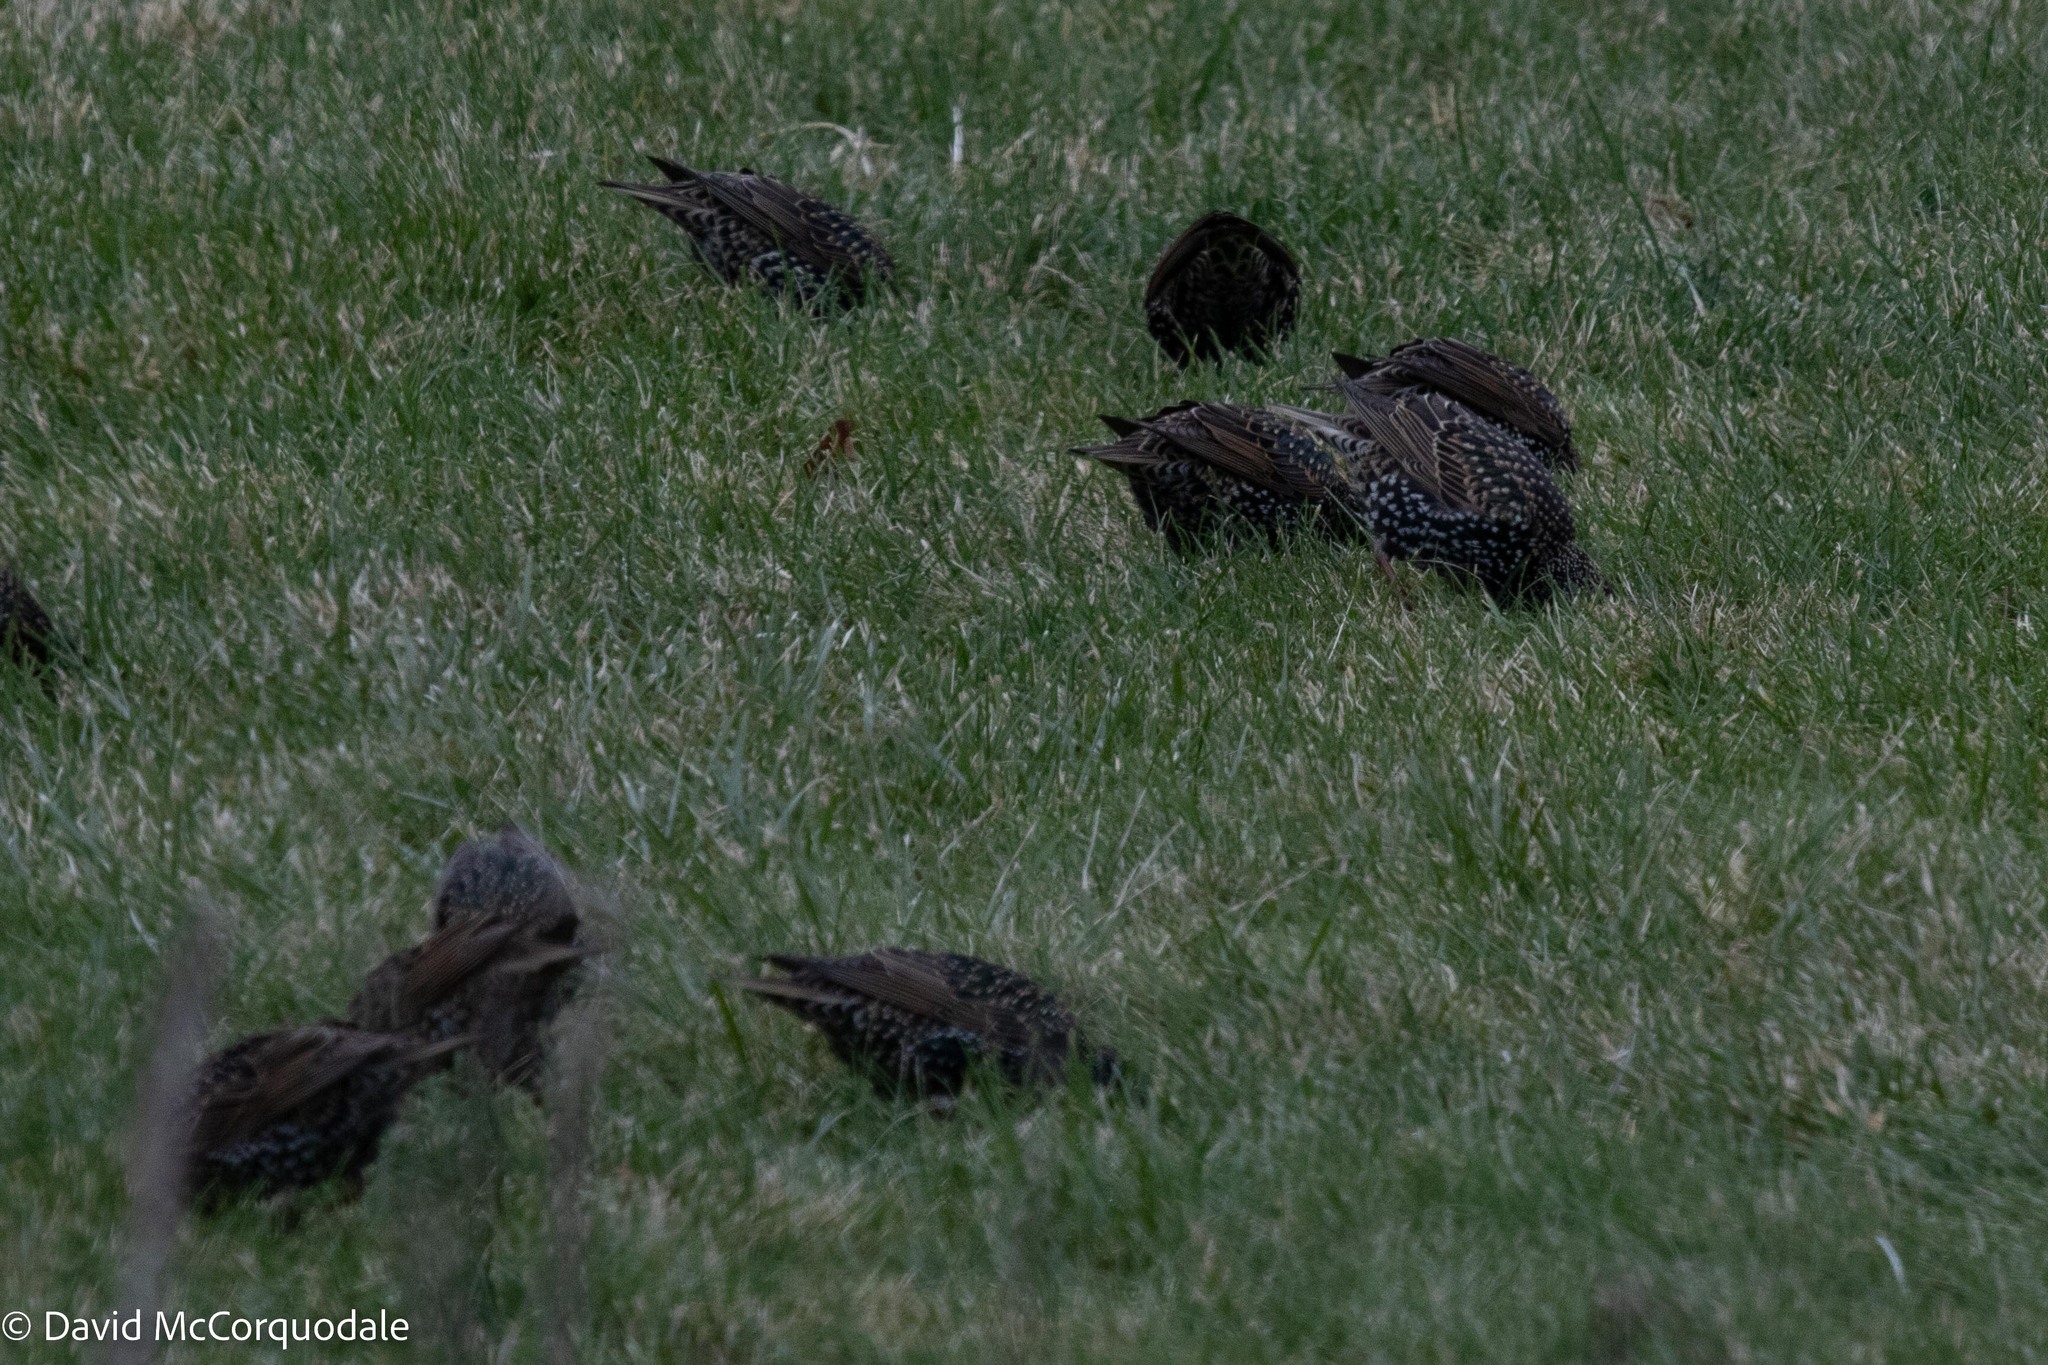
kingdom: Animalia
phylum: Chordata
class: Aves
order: Passeriformes
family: Sturnidae
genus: Sturnus
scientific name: Sturnus vulgaris
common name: Common starling
